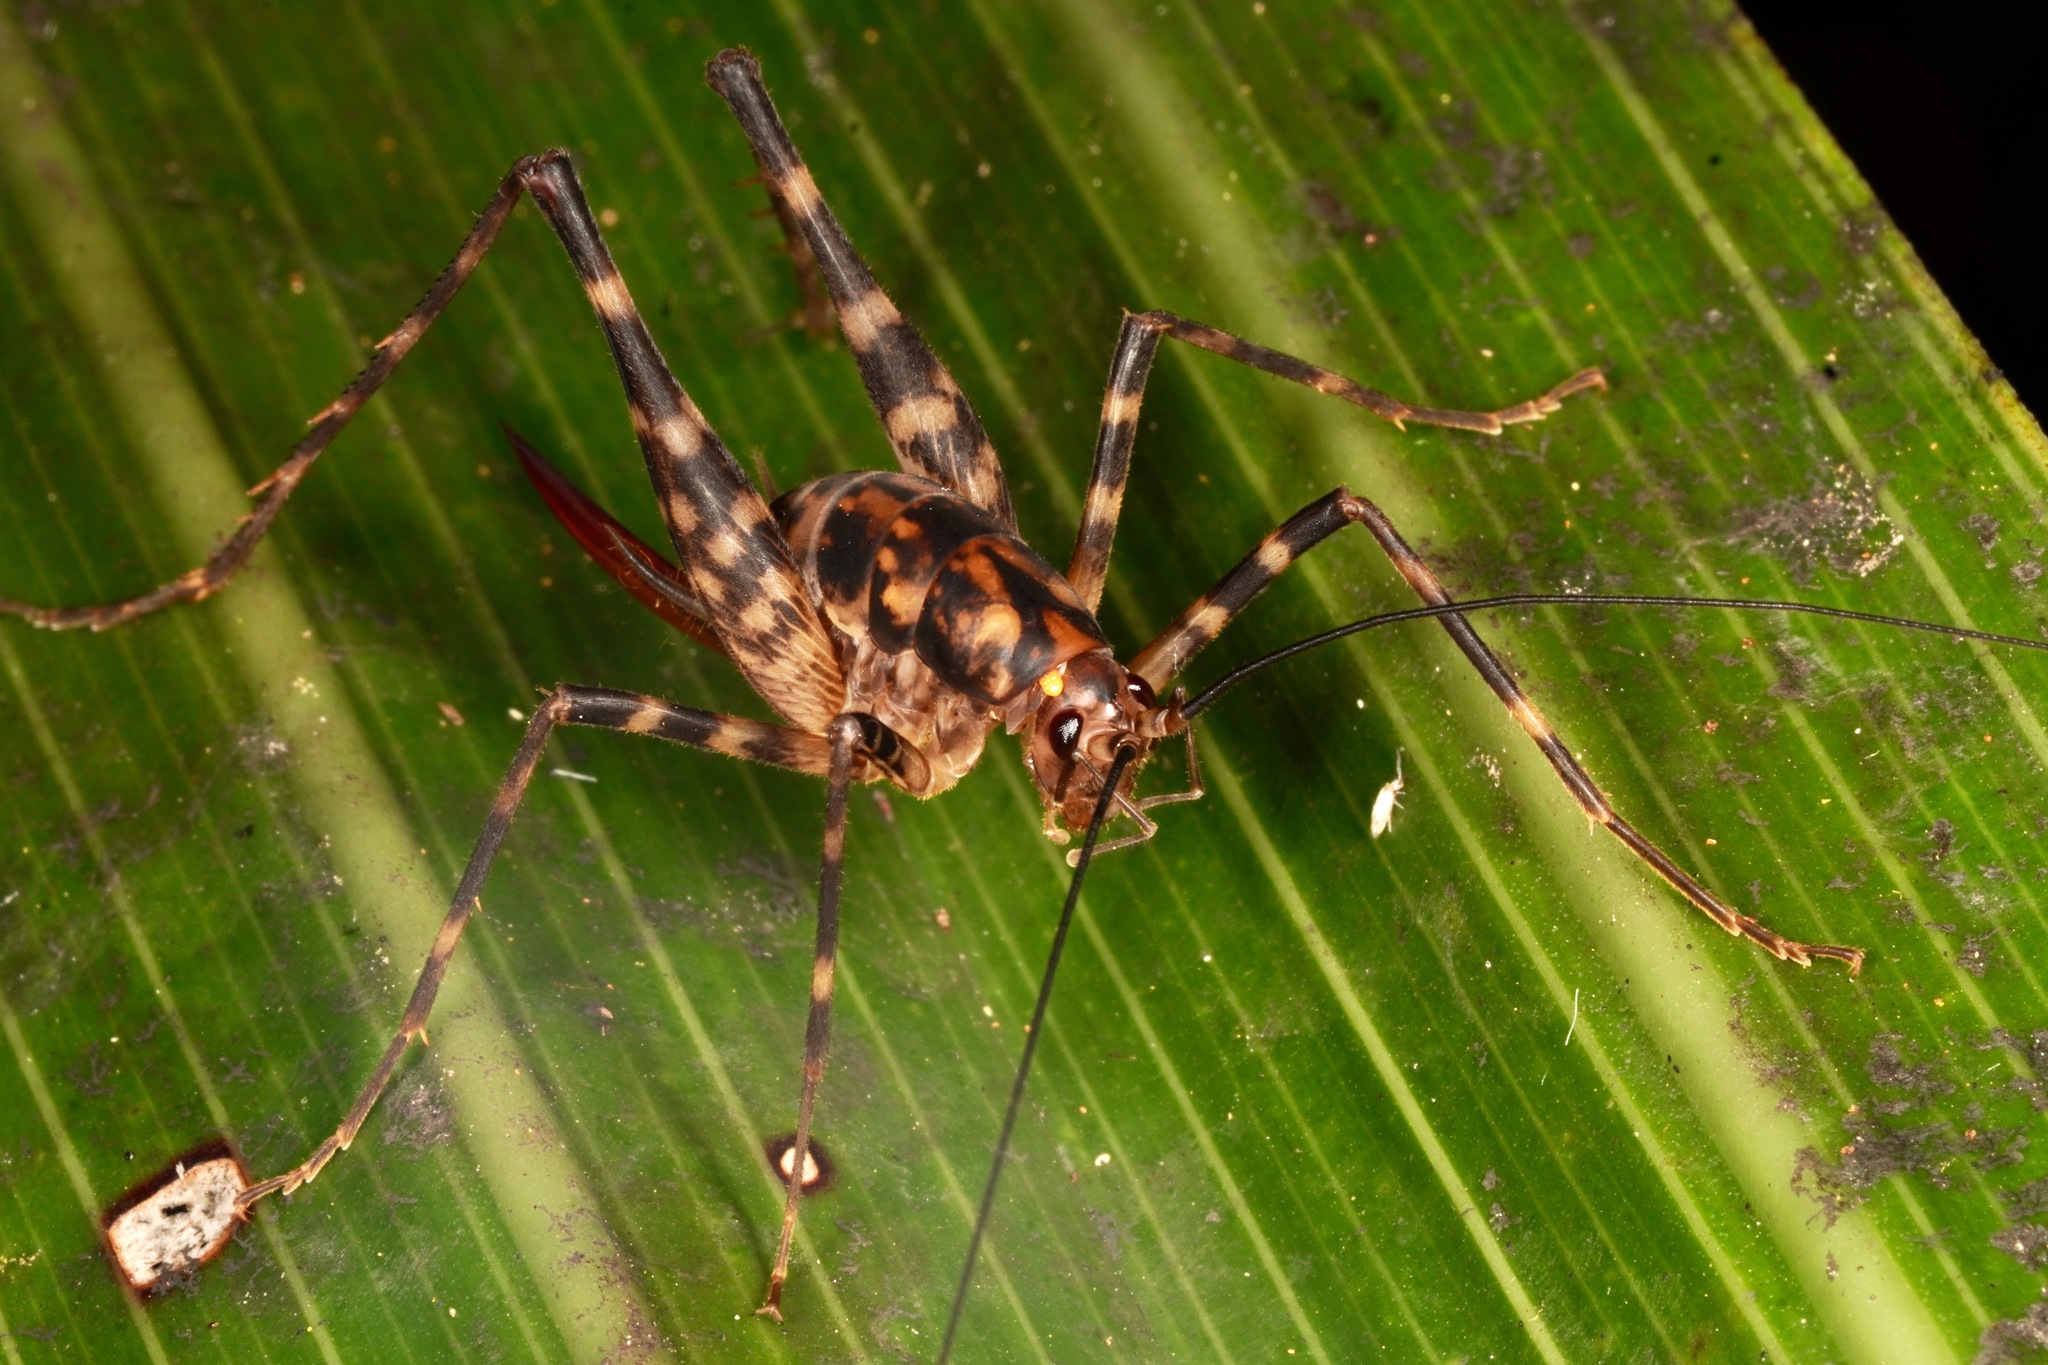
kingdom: Animalia
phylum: Arthropoda
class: Insecta
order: Orthoptera
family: Rhaphidophoridae
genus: Miotopus
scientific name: Miotopus richardsae
